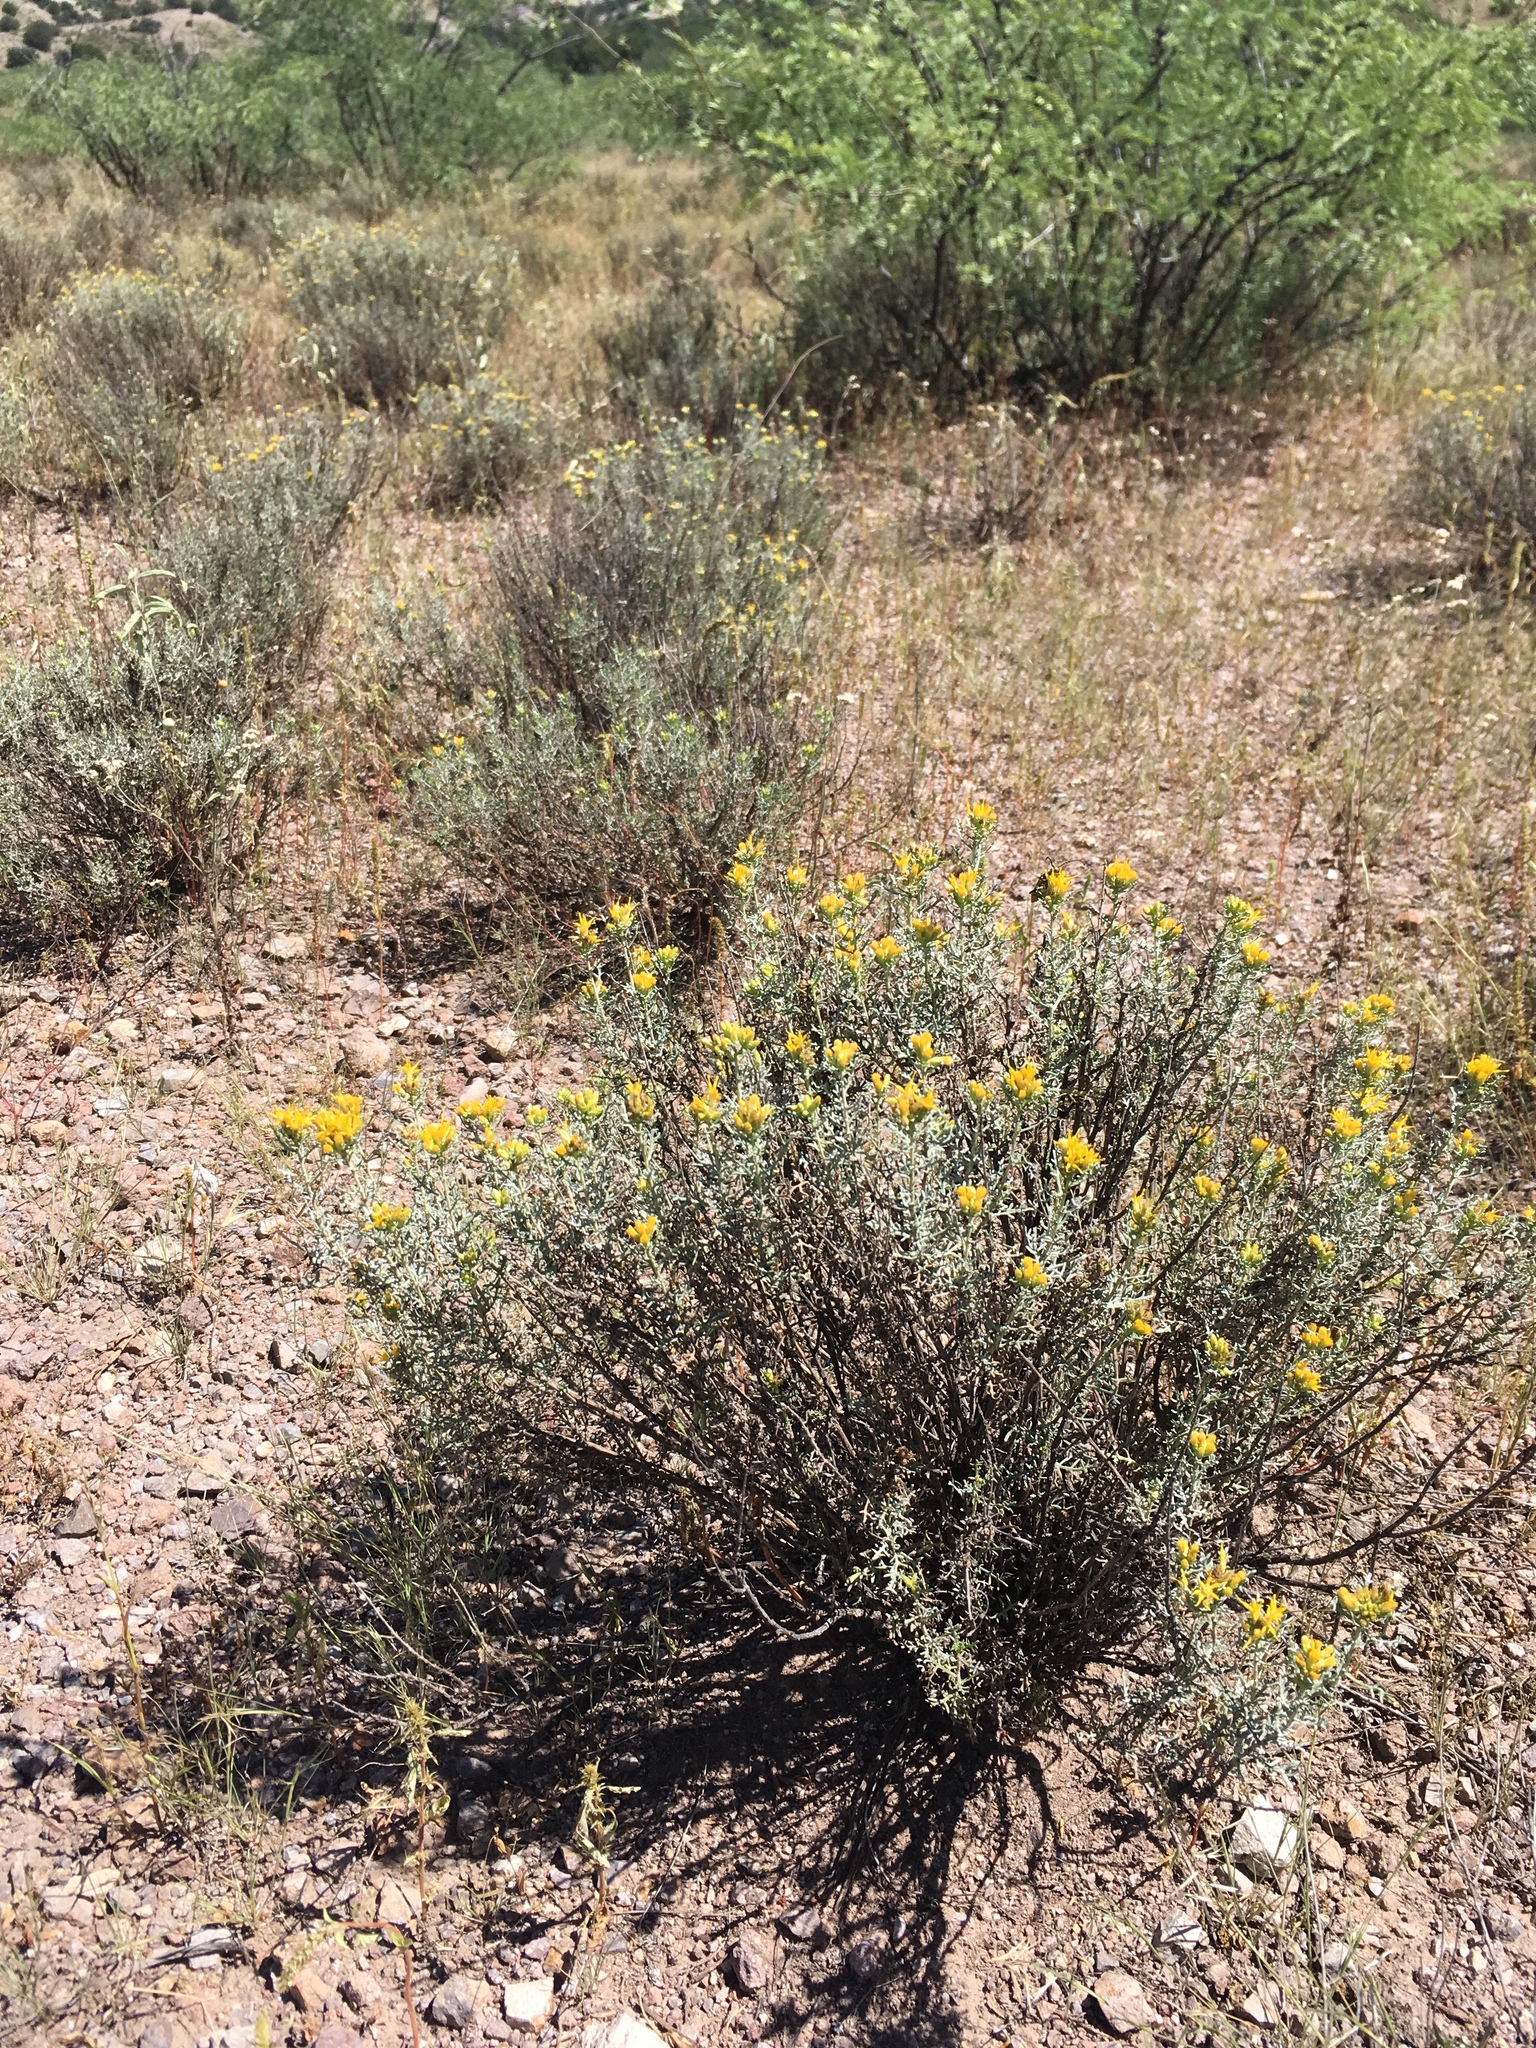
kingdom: Plantae
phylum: Tracheophyta
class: Magnoliopsida
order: Asterales
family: Asteraceae
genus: Isocoma
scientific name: Isocoma tenuisecta
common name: Burroweed
